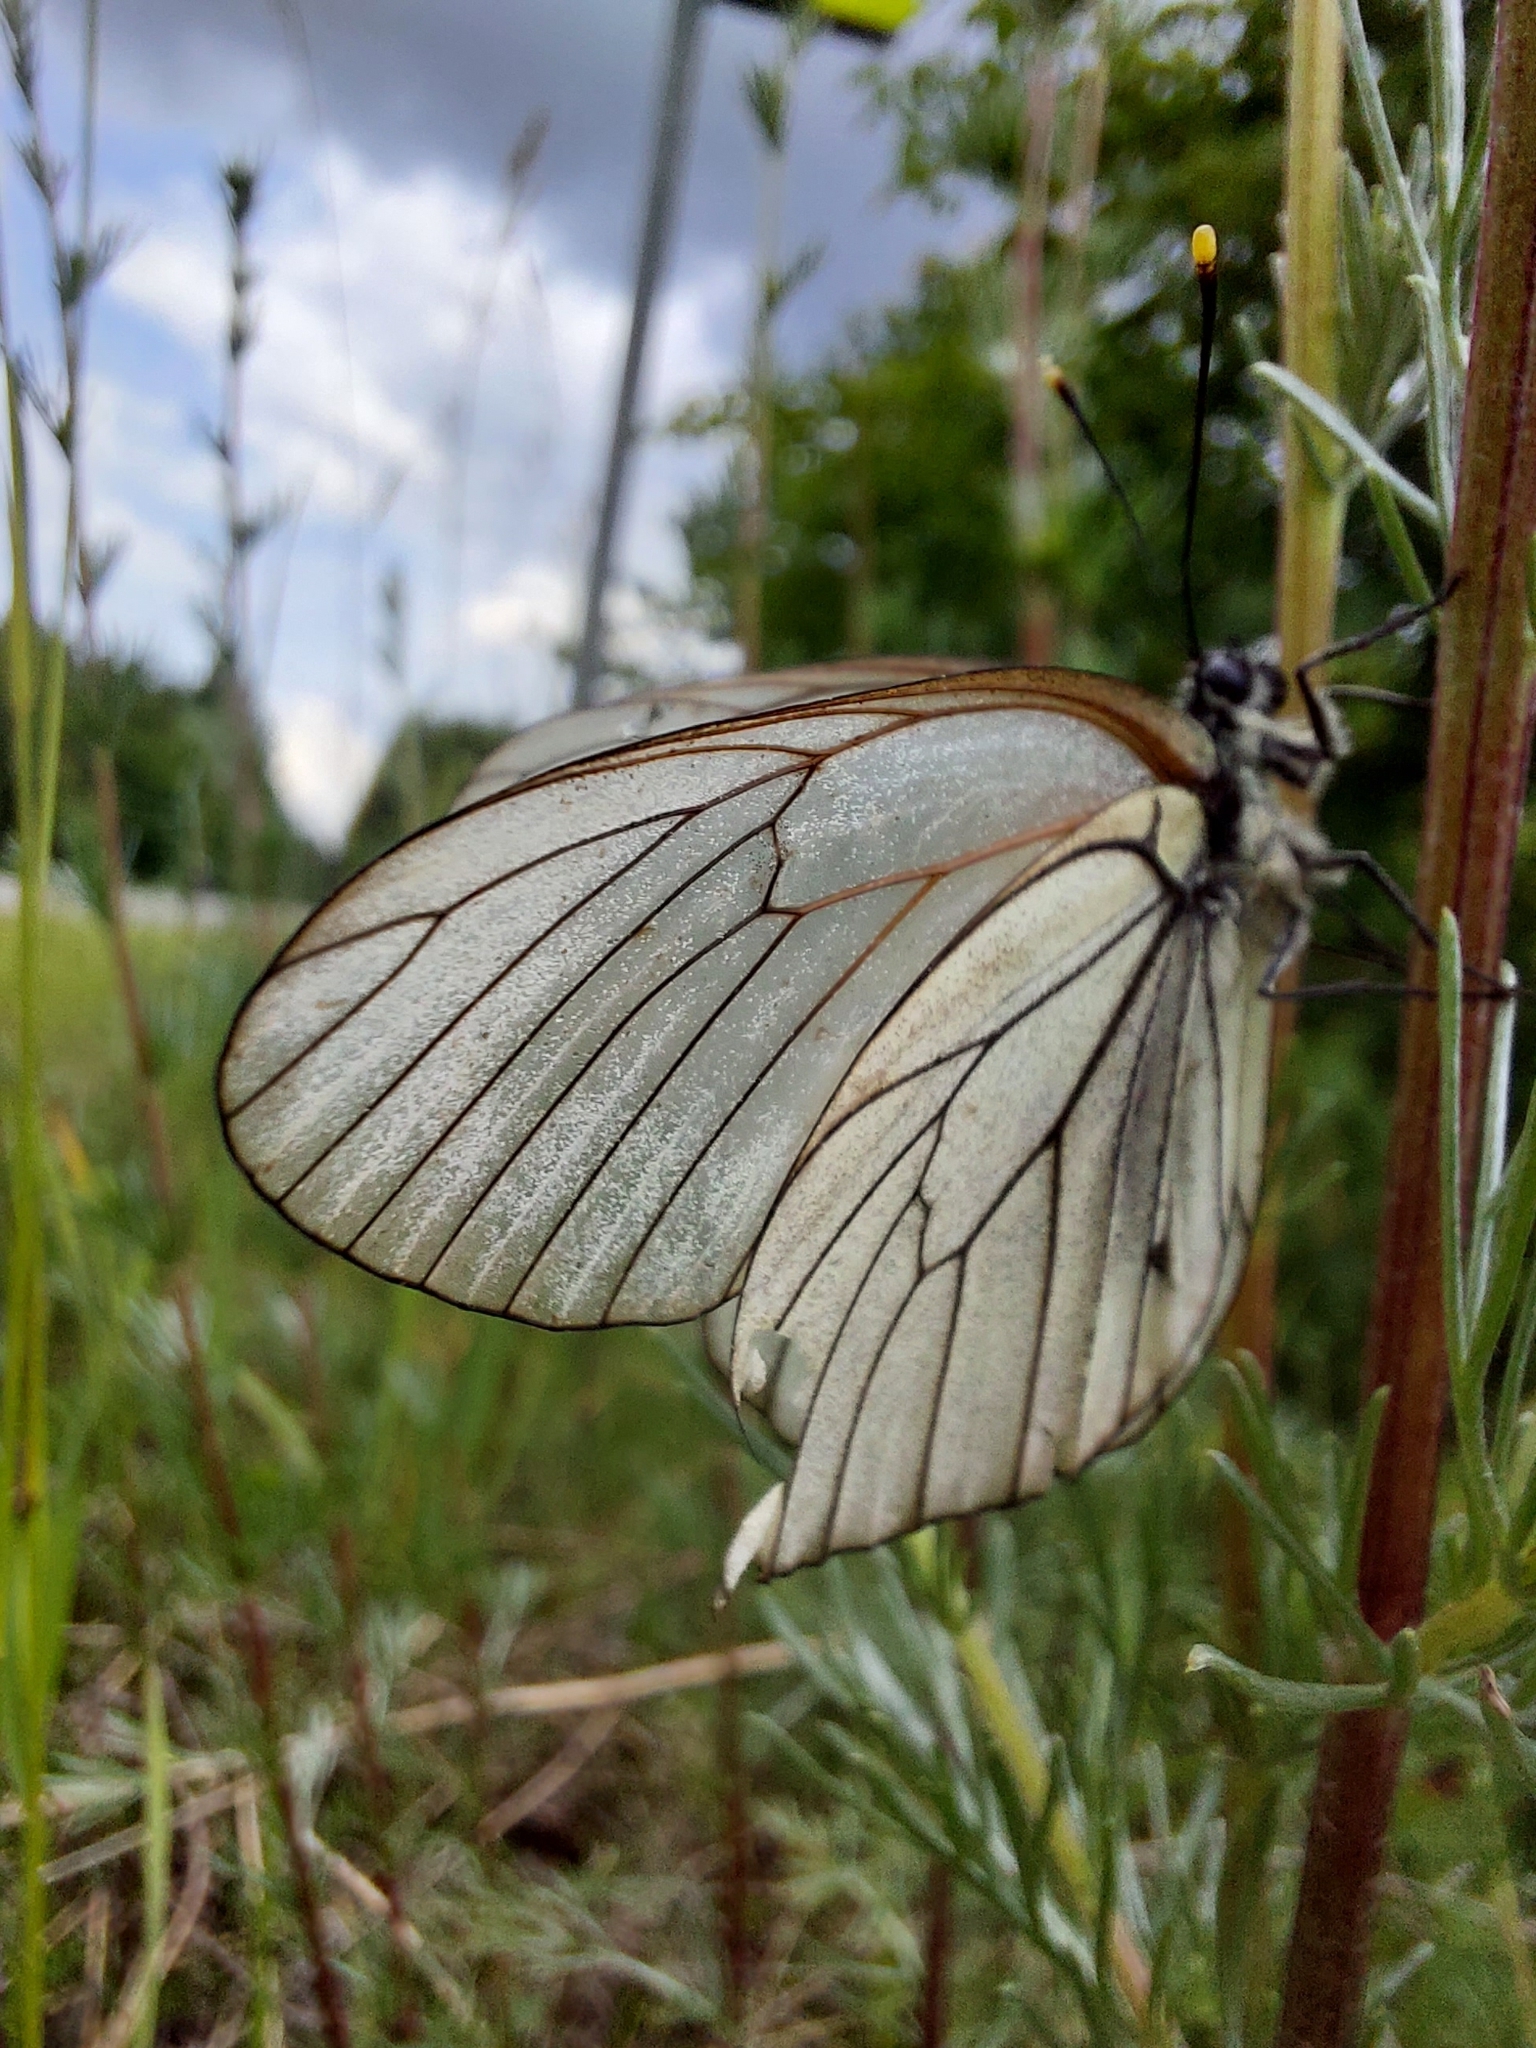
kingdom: Animalia
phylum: Arthropoda
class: Insecta
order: Lepidoptera
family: Pieridae
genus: Aporia
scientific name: Aporia crataegi
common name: Black-veined white
